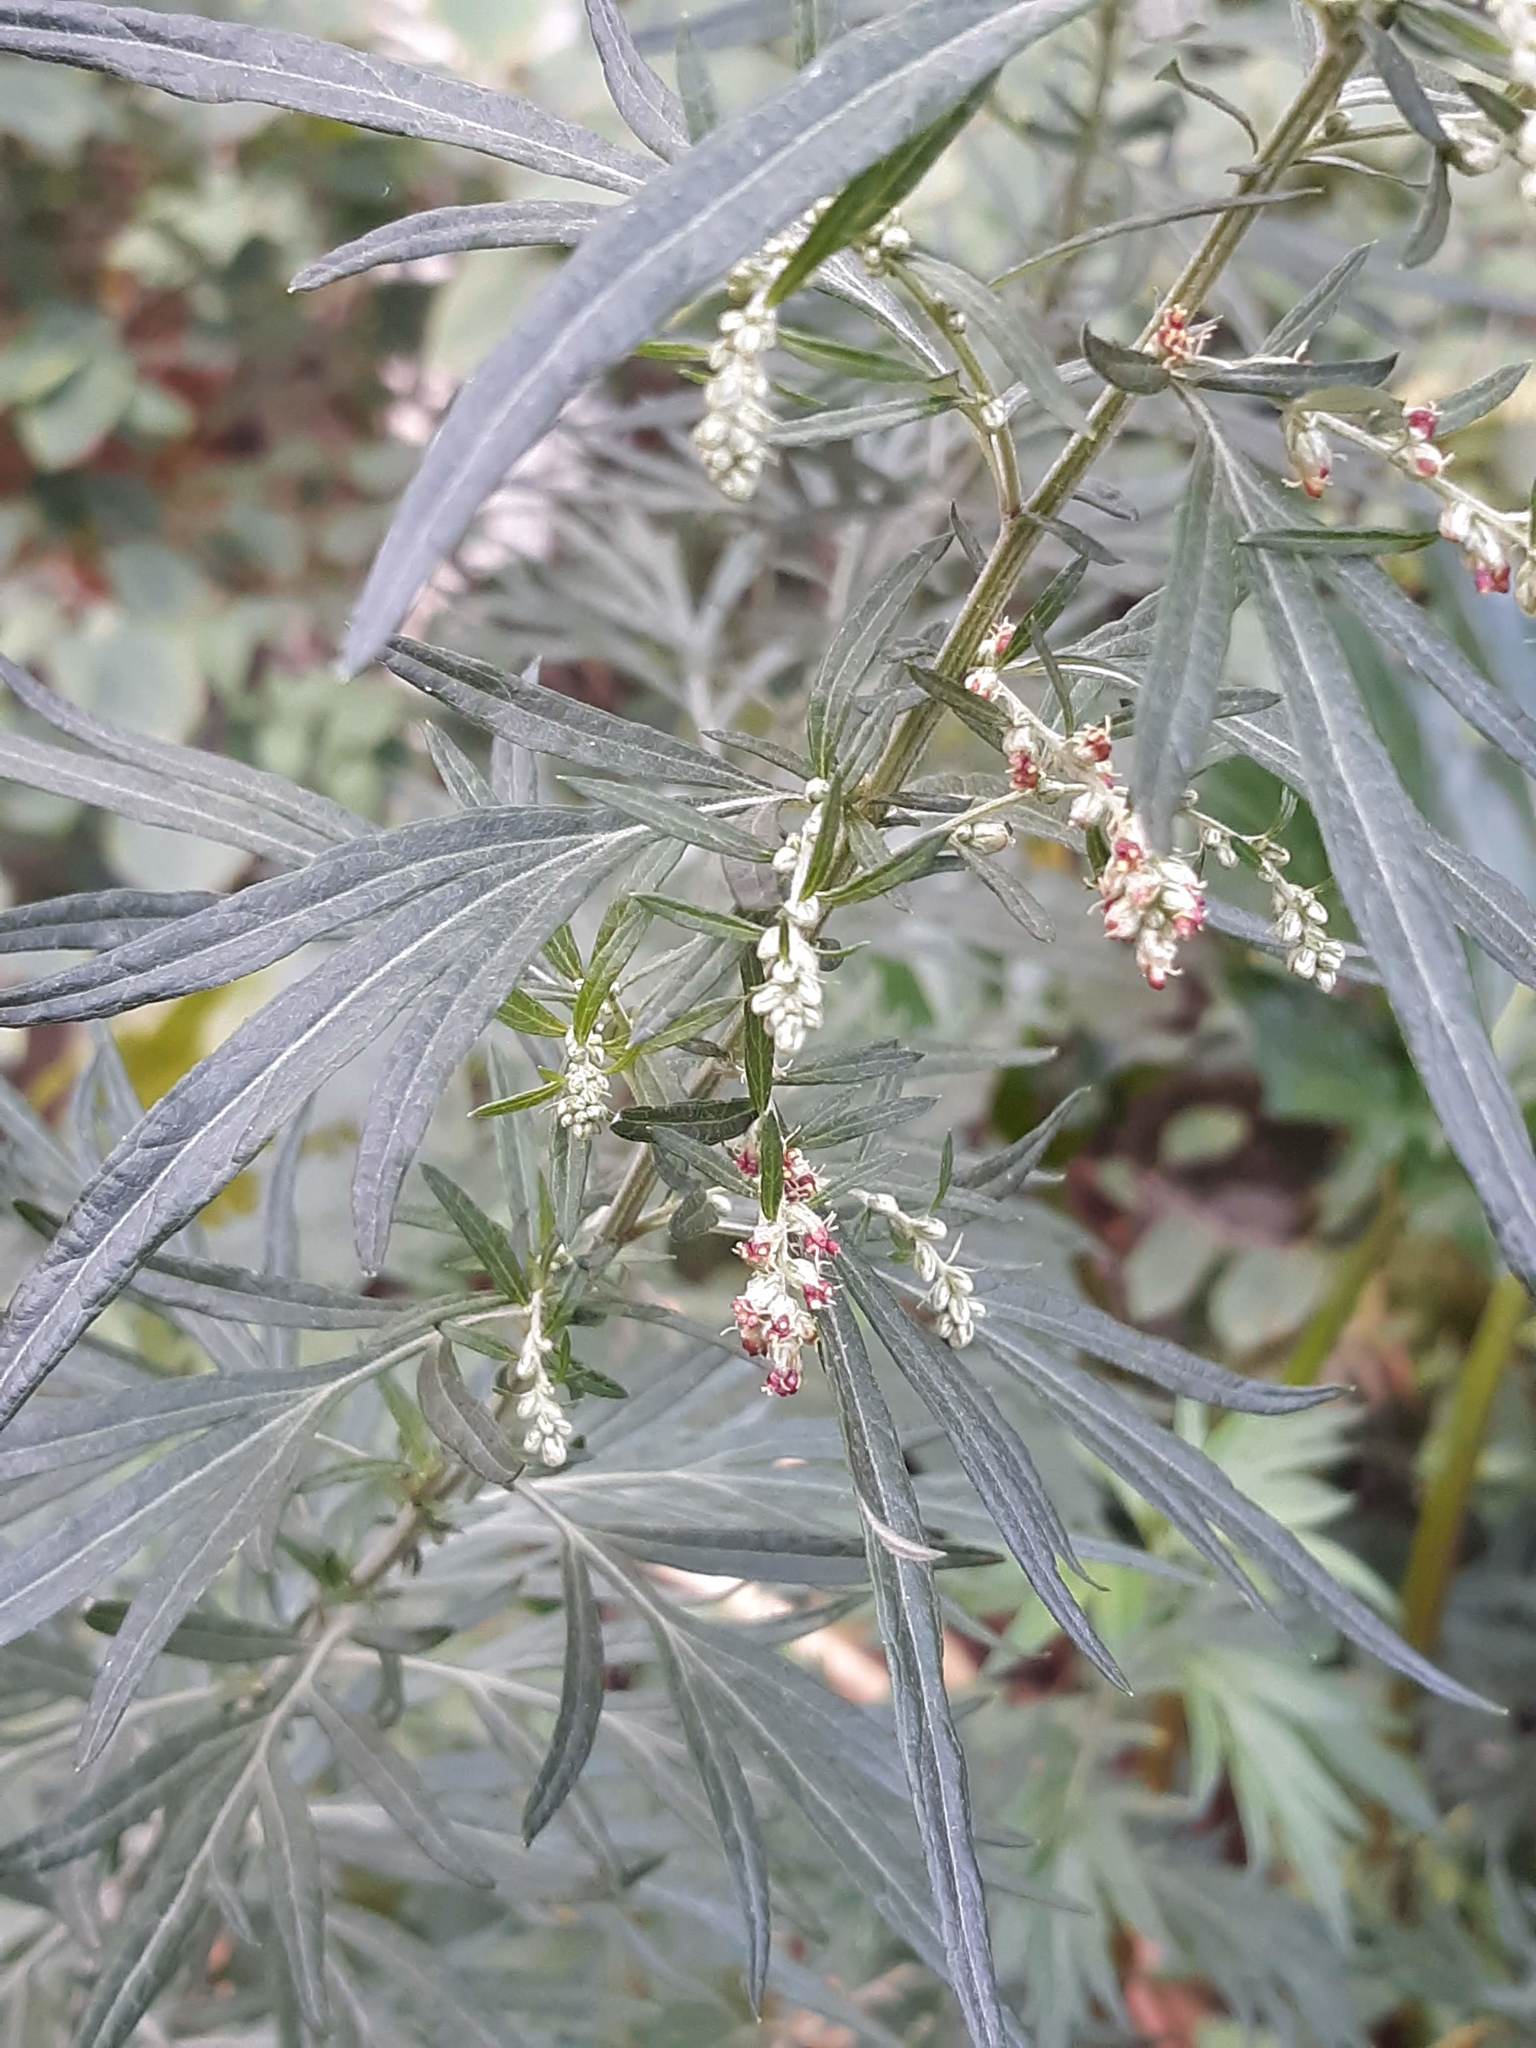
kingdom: Plantae
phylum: Tracheophyta
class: Magnoliopsida
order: Asterales
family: Asteraceae
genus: Artemisia
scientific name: Artemisia vulgaris
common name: Mugwort
